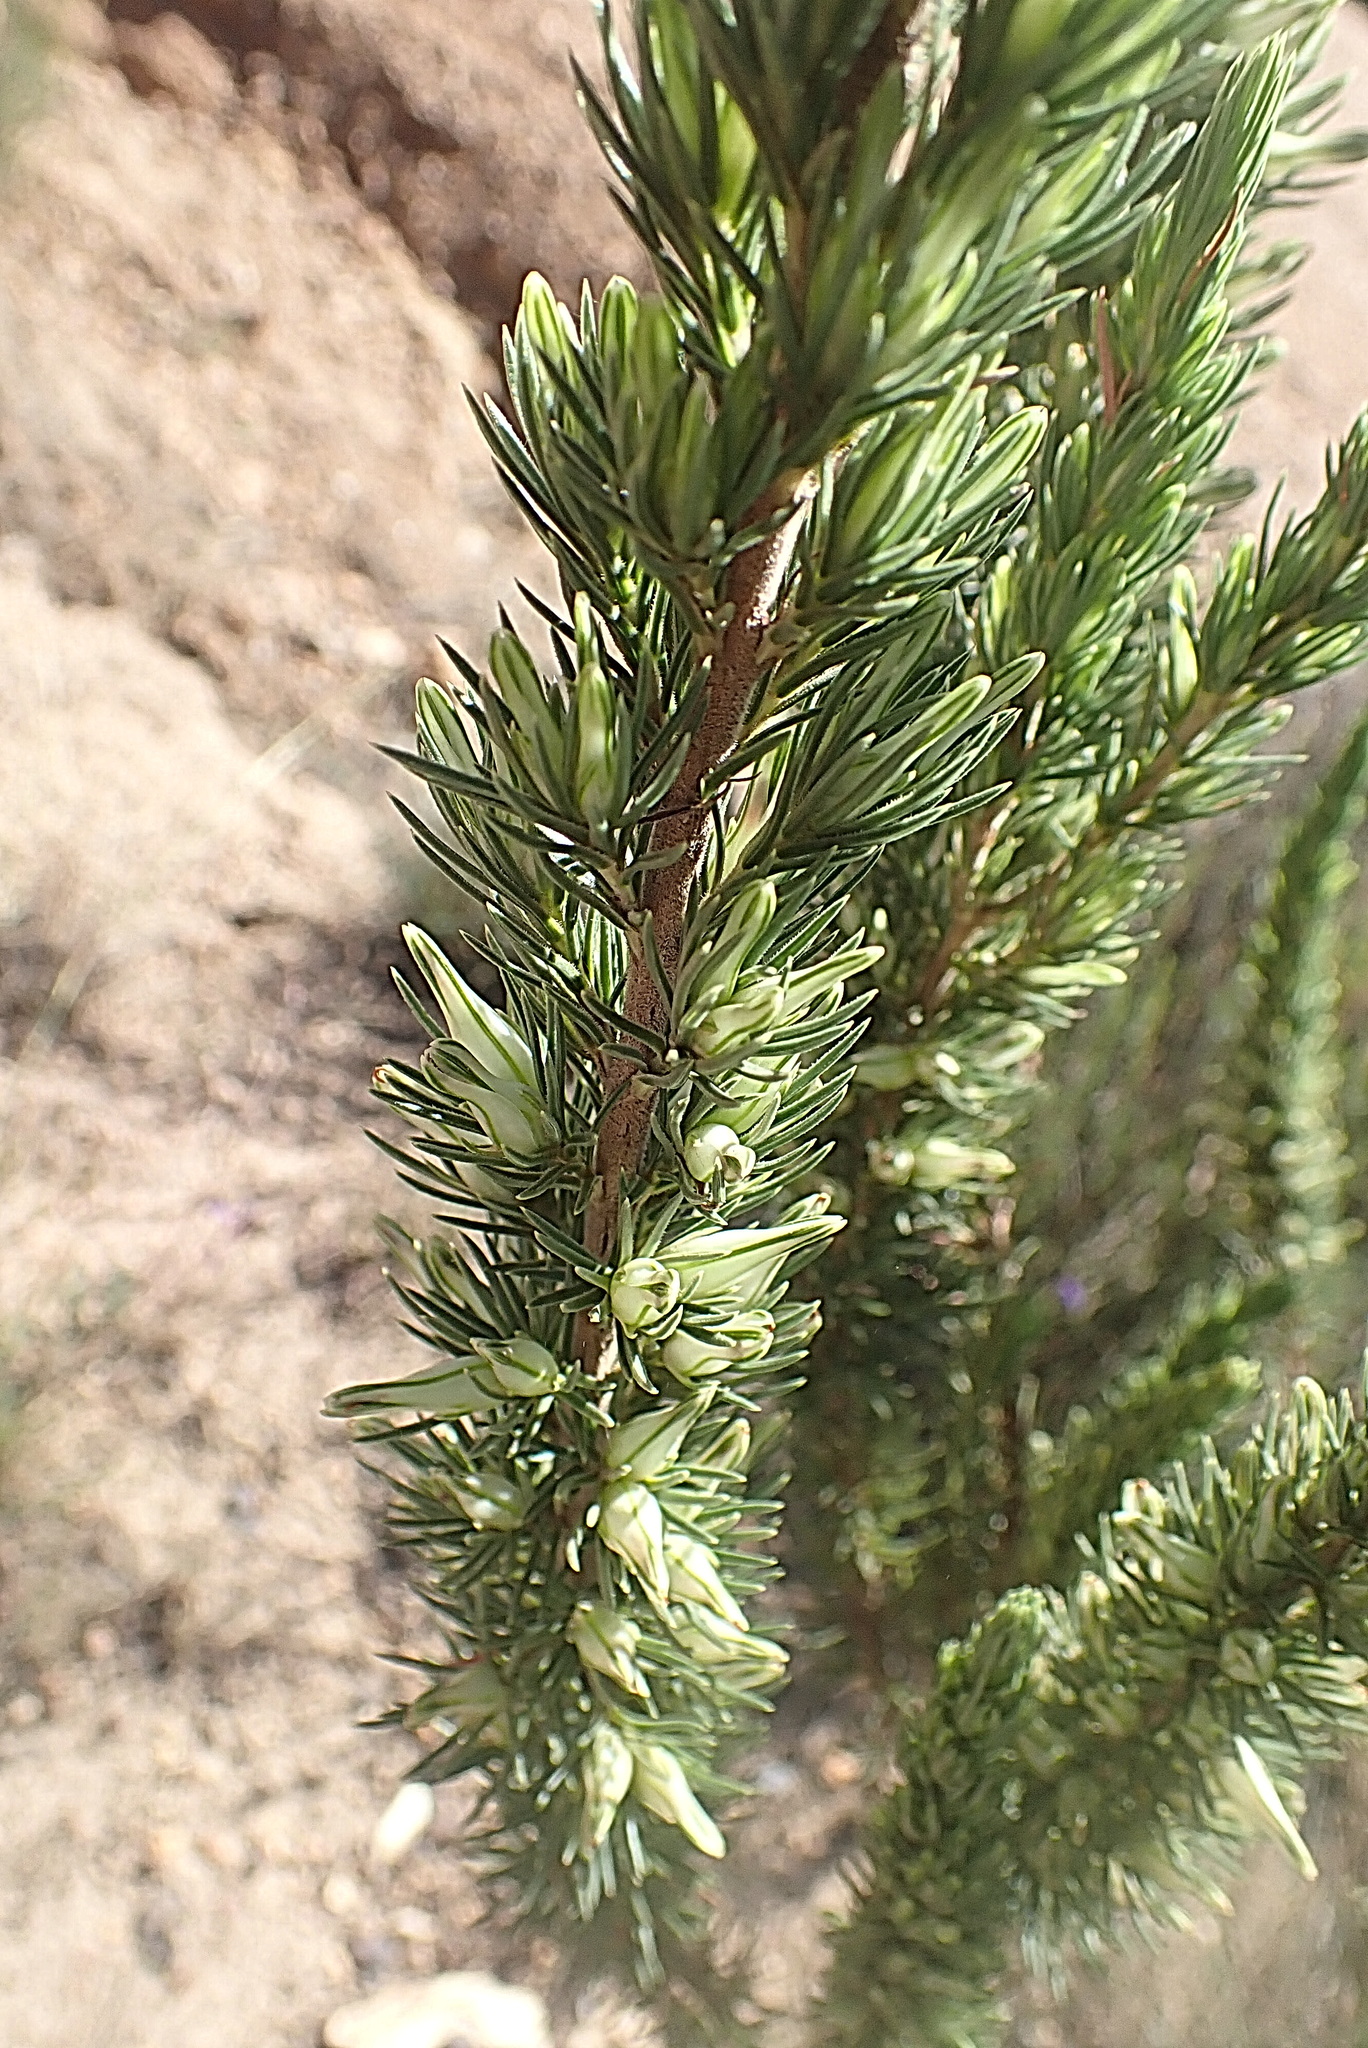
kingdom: Plantae
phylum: Tracheophyta
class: Magnoliopsida
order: Ericales
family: Ericaceae
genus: Erica
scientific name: Erica nabea
